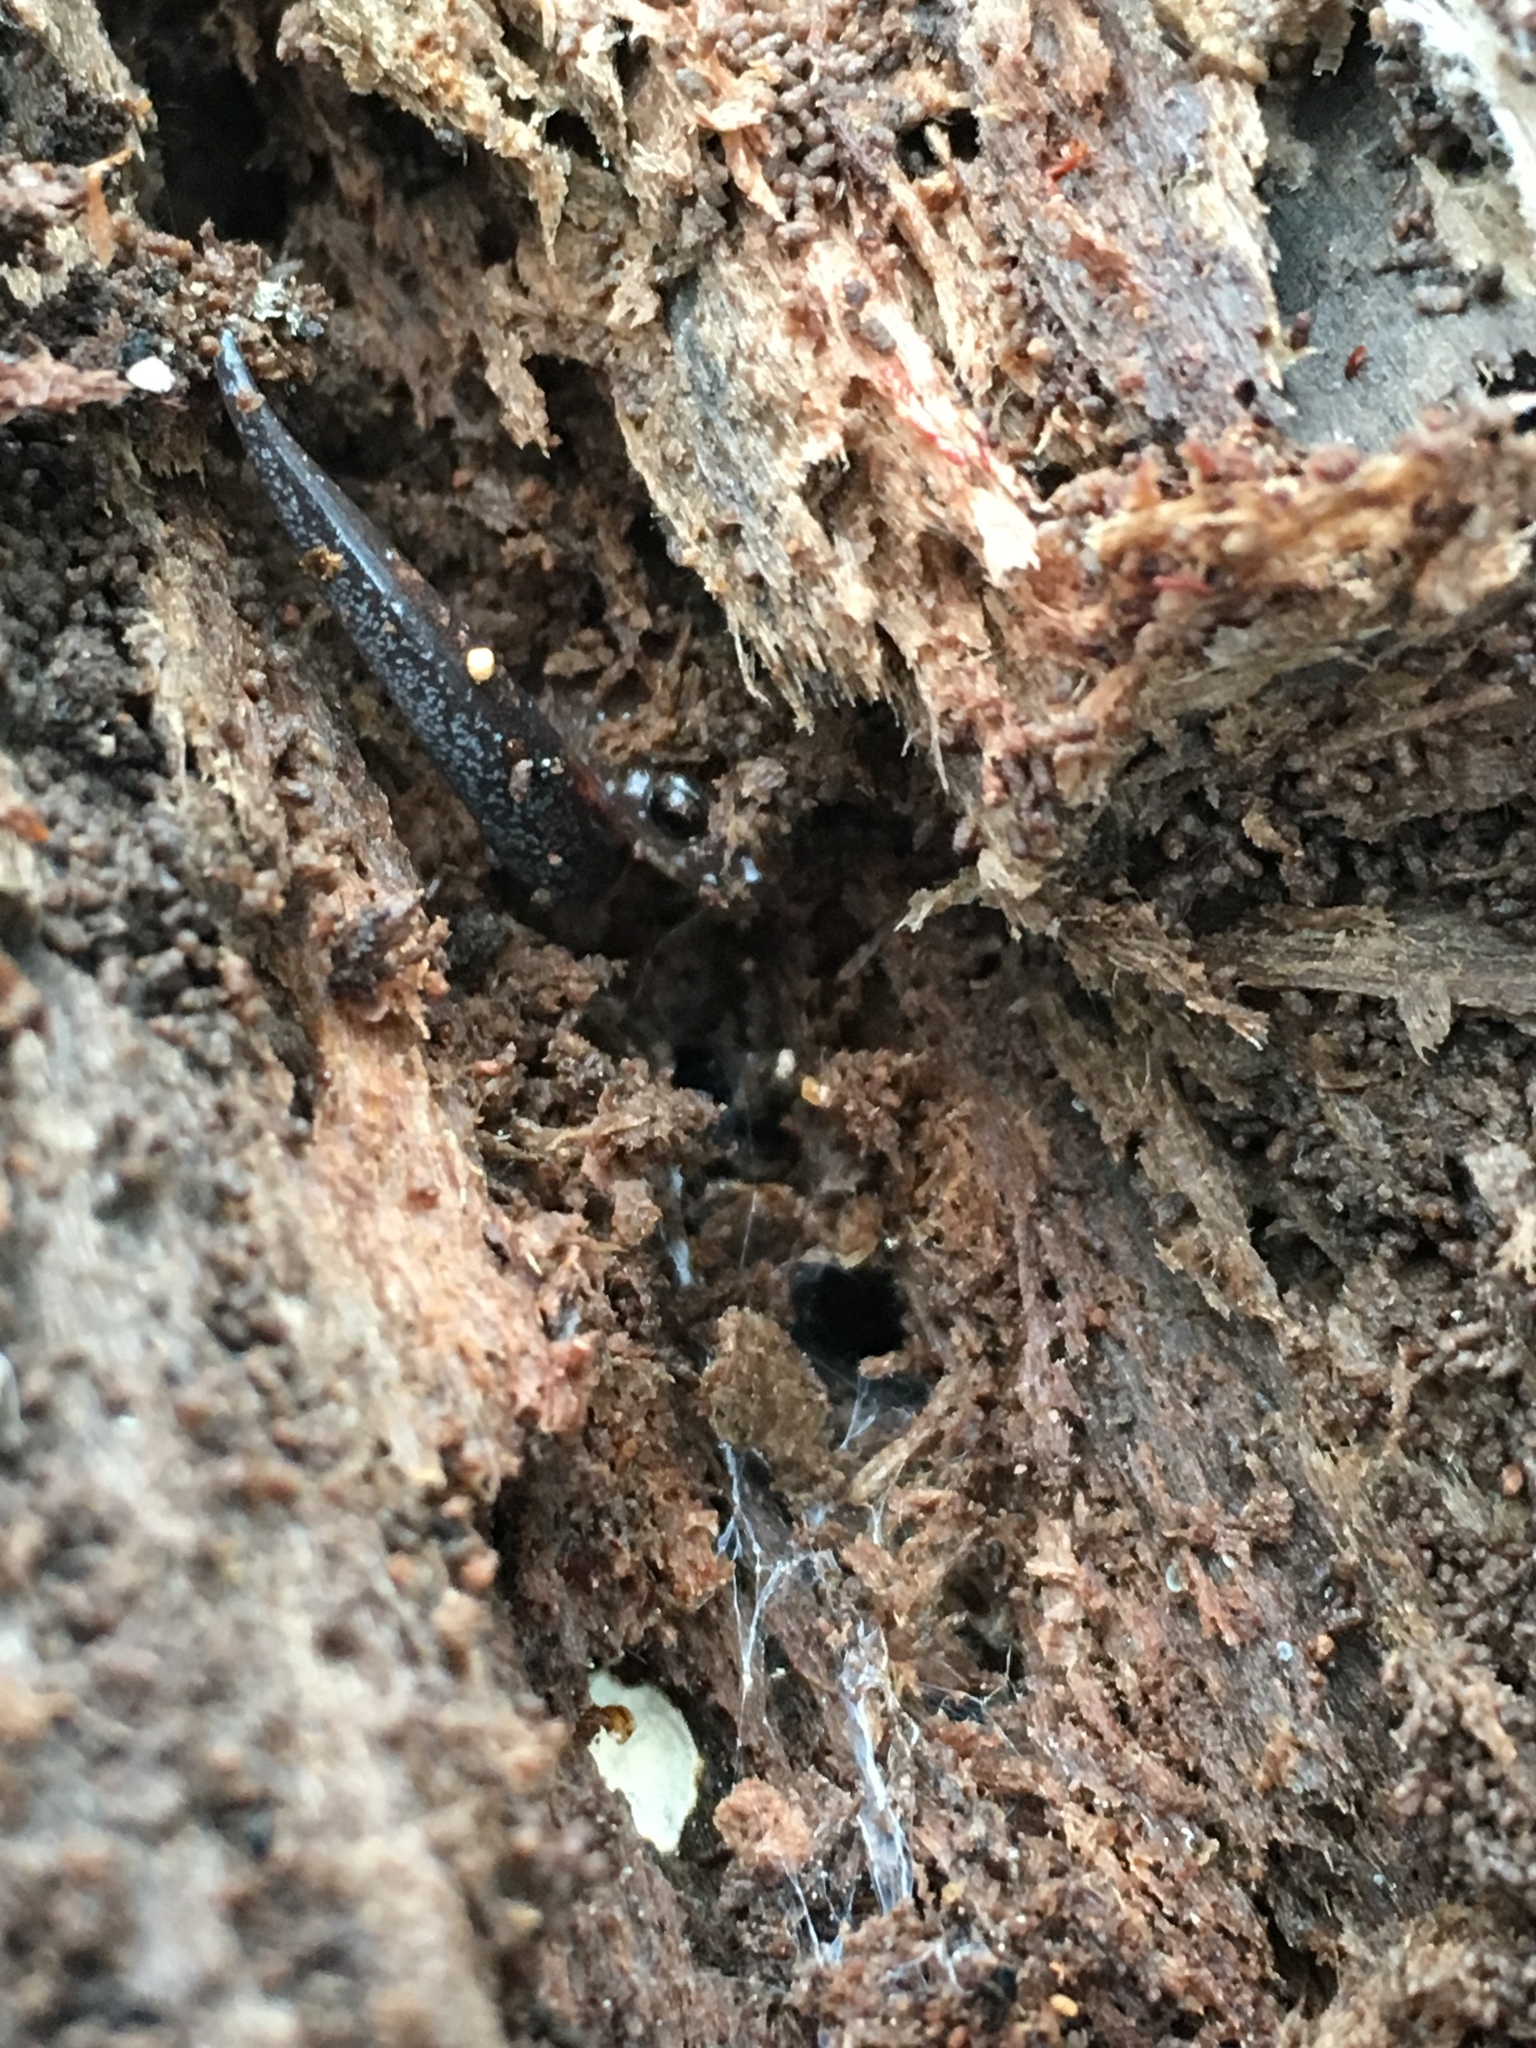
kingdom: Animalia
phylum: Chordata
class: Amphibia
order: Caudata
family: Plethodontidae
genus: Plethodon
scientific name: Plethodon cinereus
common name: Redback salamander
